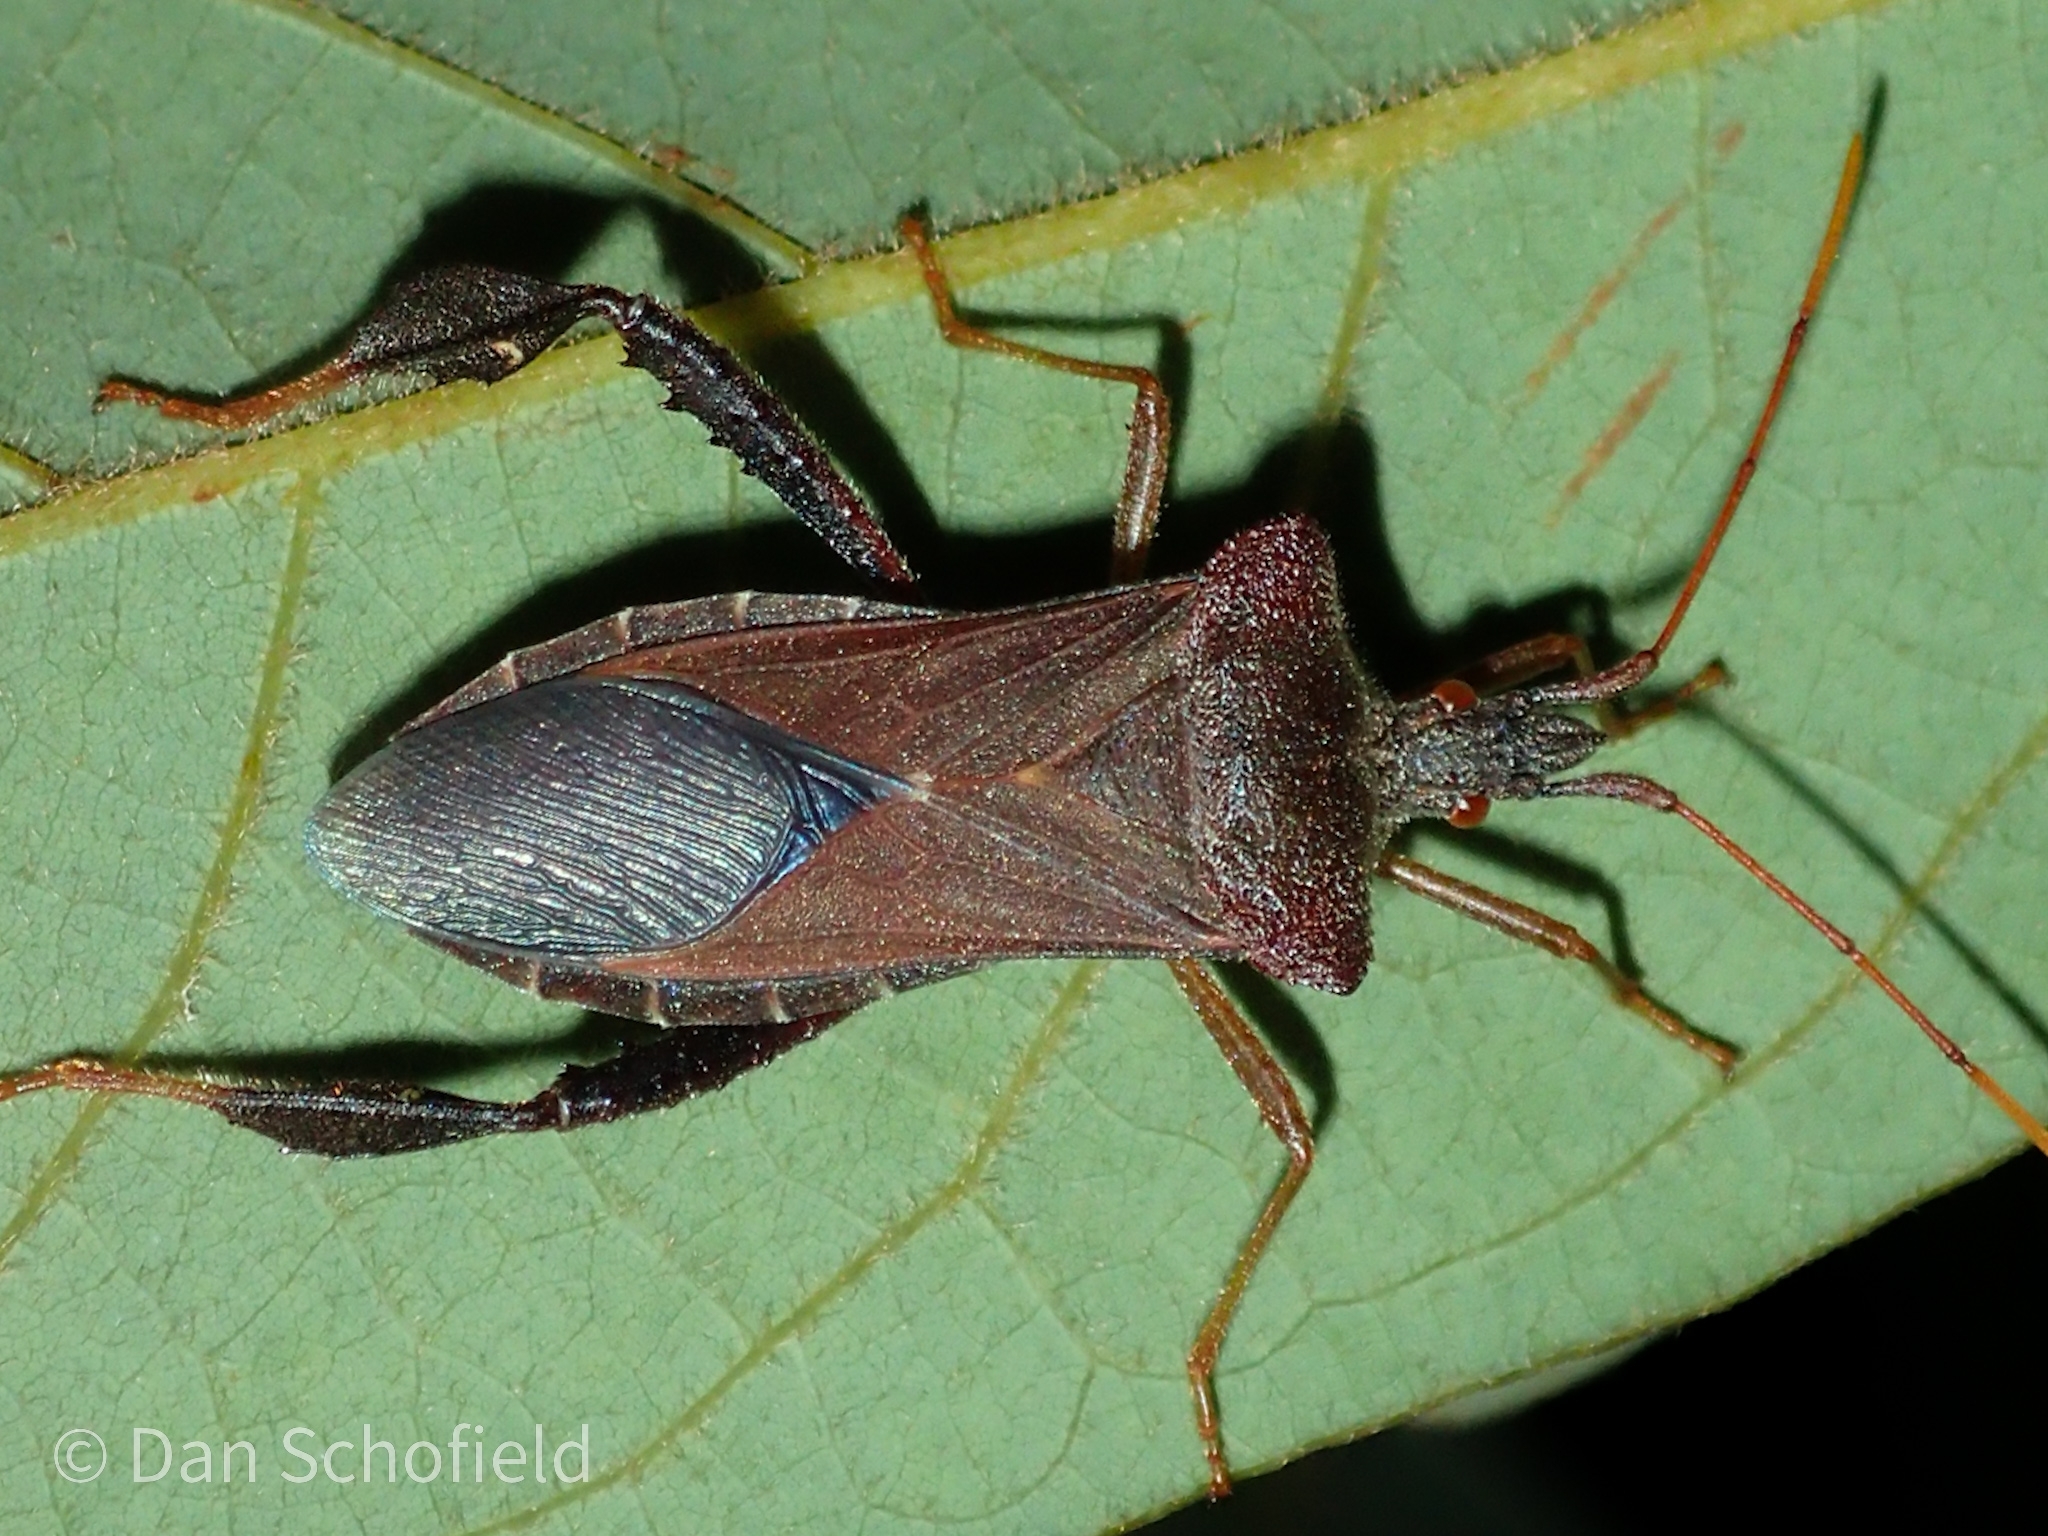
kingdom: Animalia
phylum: Arthropoda
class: Insecta
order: Hemiptera
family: Coreidae
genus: Leptoglossus
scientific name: Leptoglossus fulvicornis
